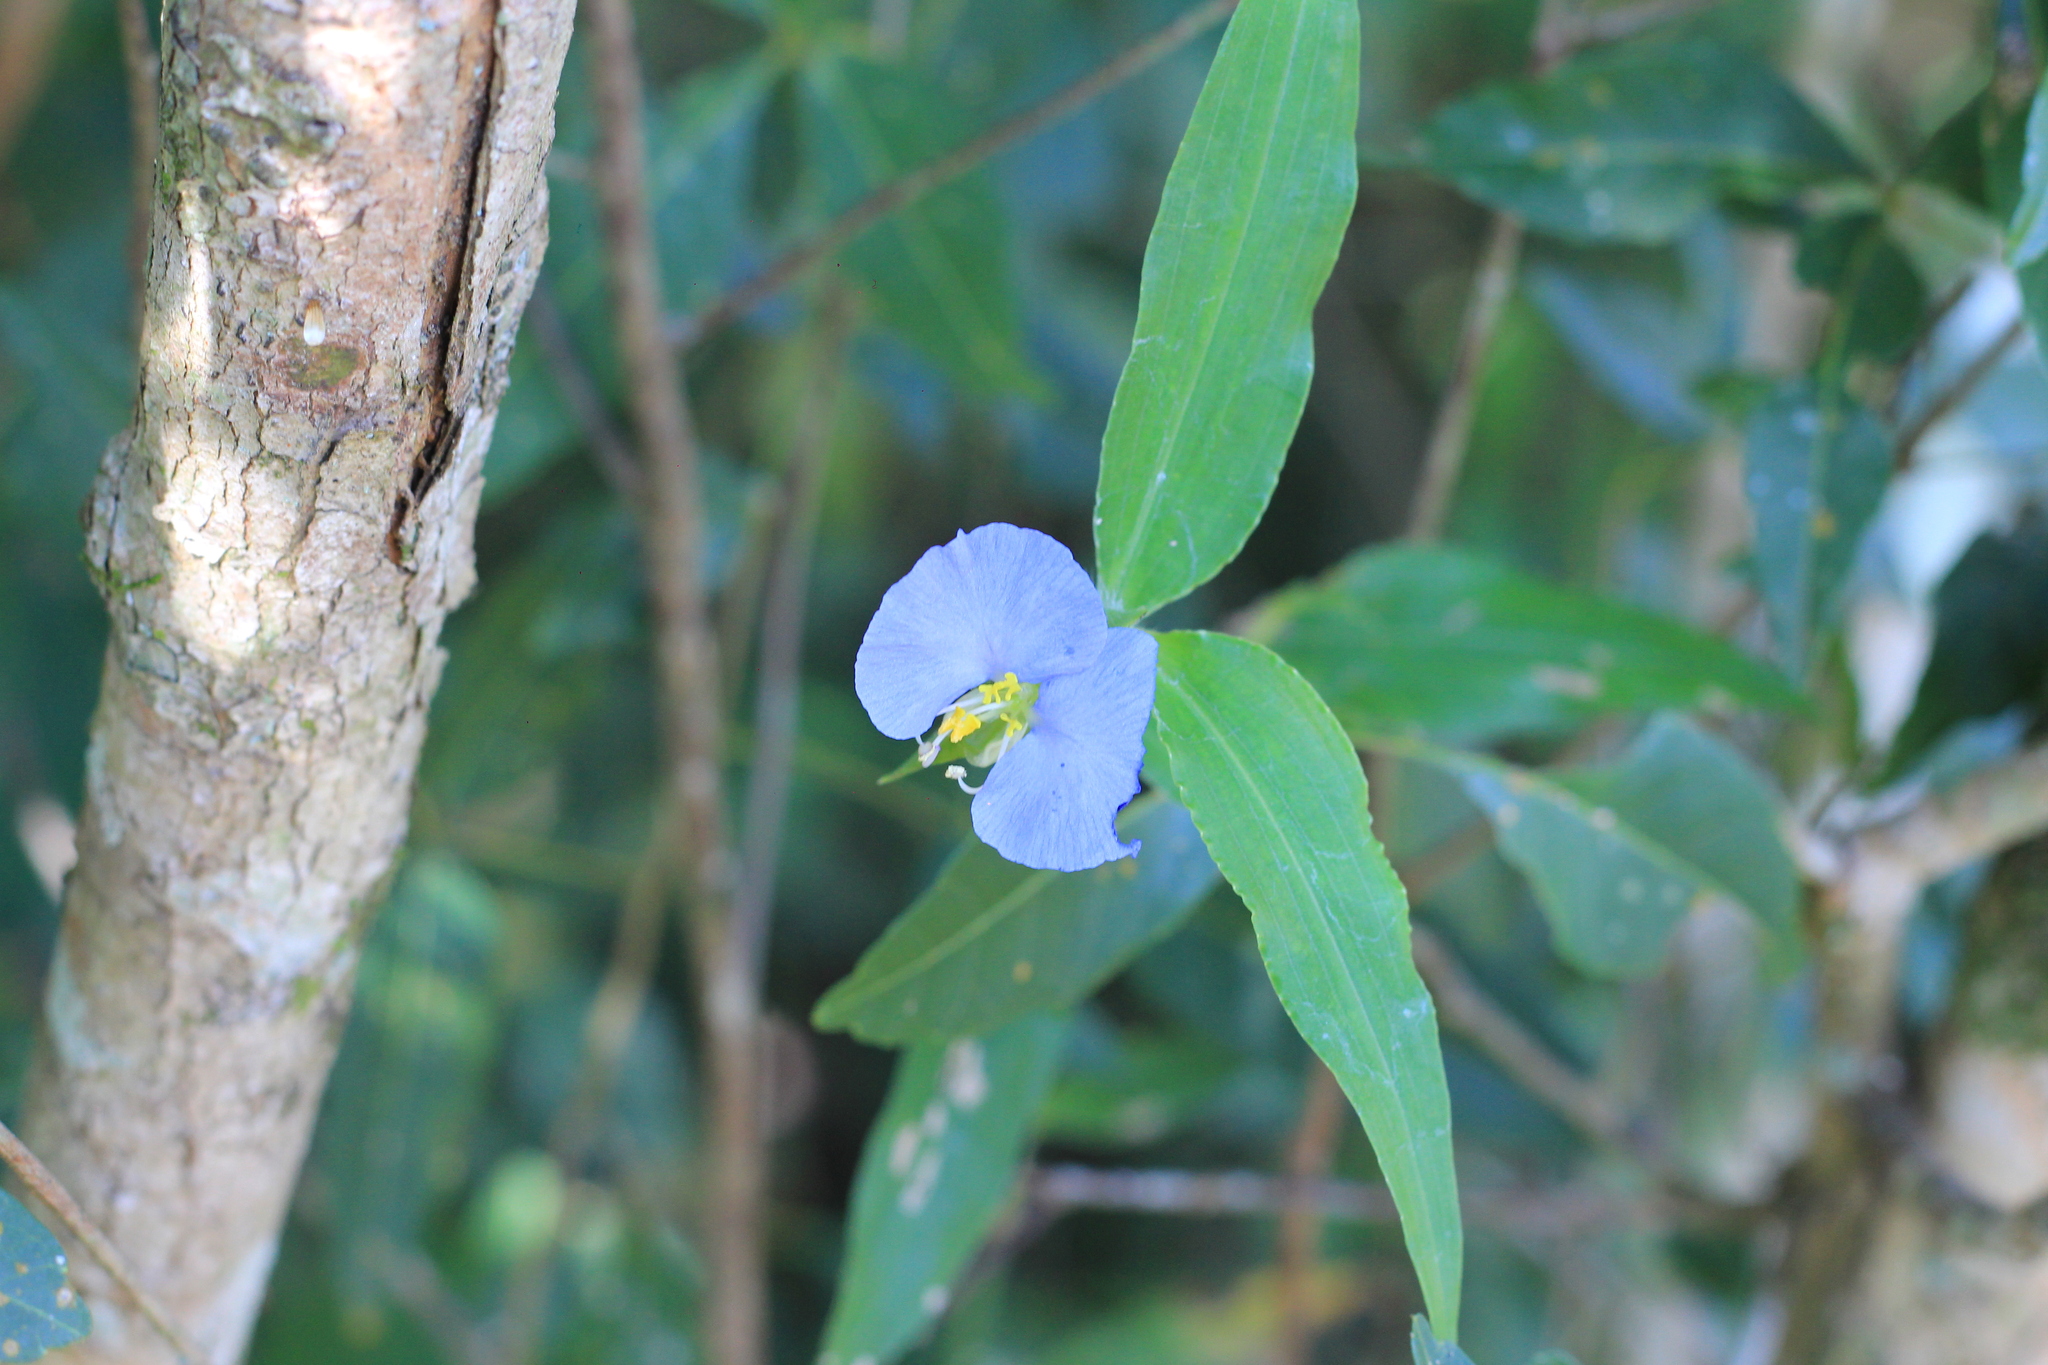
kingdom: Plantae
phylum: Tracheophyta
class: Liliopsida
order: Commelinales
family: Commelinaceae
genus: Commelina
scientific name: Commelina erecta
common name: Blousel blommetjie
